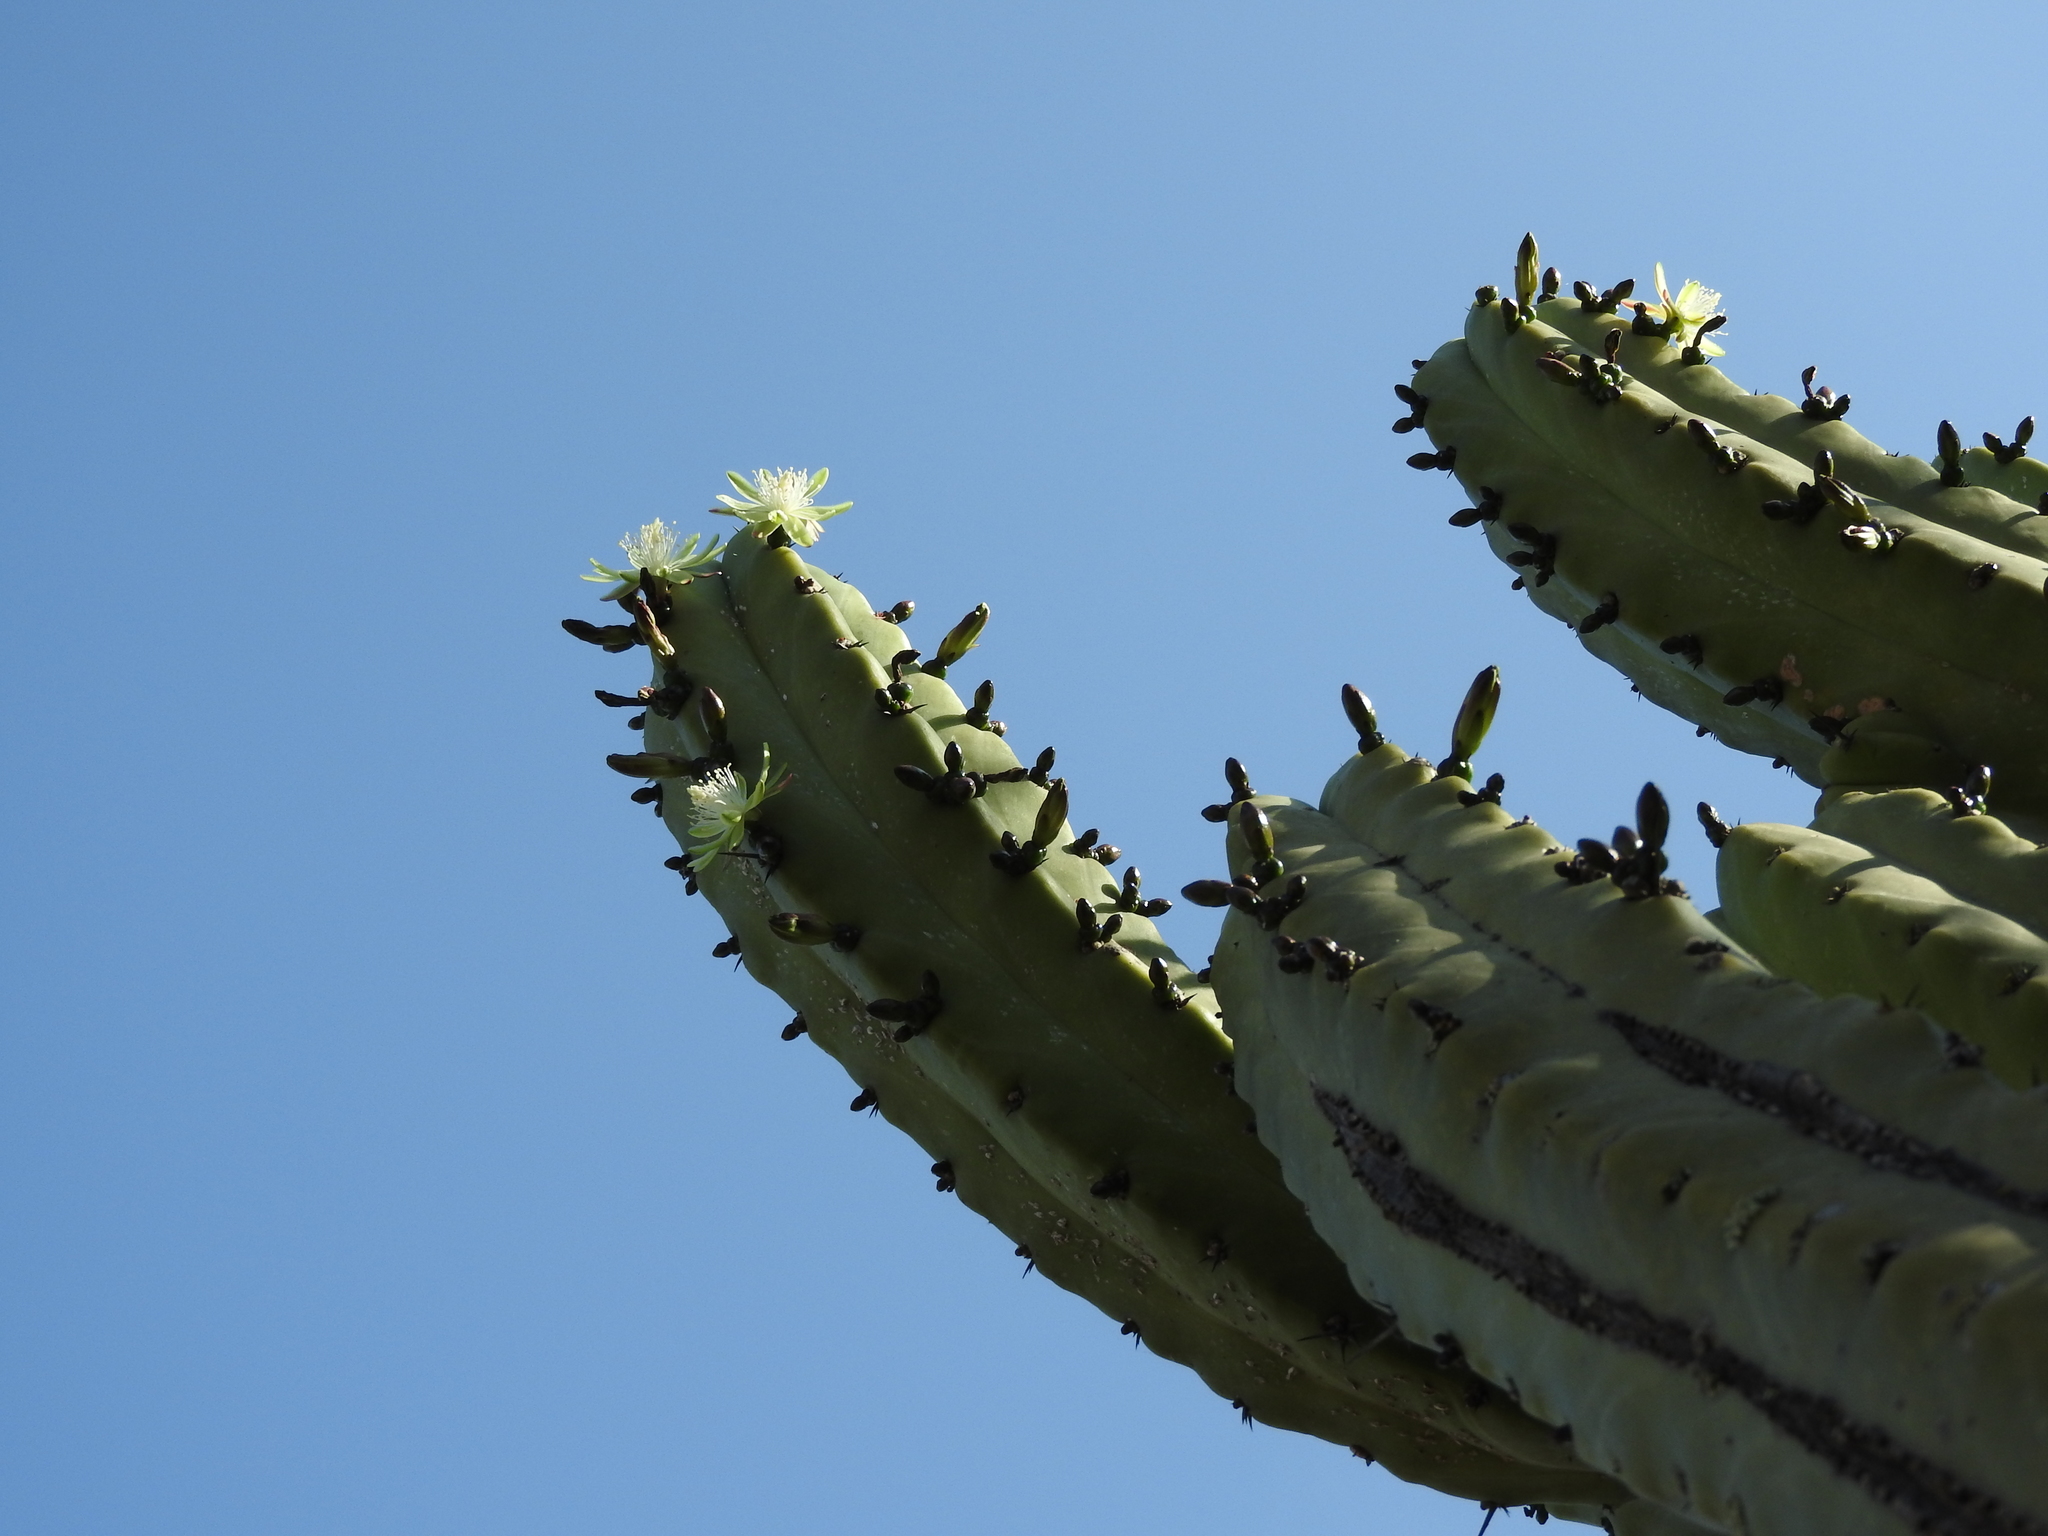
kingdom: Plantae
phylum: Tracheophyta
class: Magnoliopsida
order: Caryophyllales
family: Cactaceae
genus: Myrtillocactus
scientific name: Myrtillocactus geometrizans
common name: Bilberry cactus
